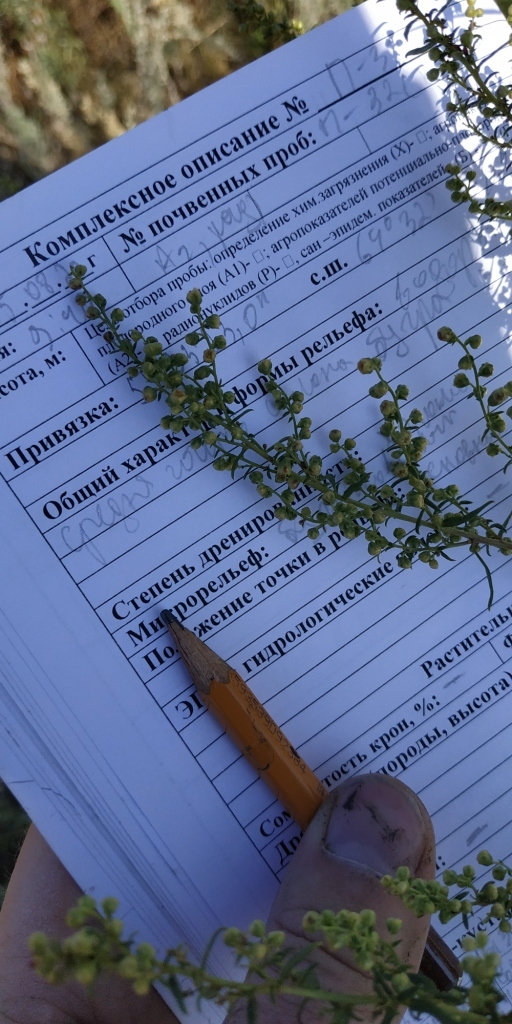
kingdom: Plantae
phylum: Tracheophyta
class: Magnoliopsida
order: Asterales
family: Asteraceae
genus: Artemisia
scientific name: Artemisia dracunculus
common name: Tarragon
